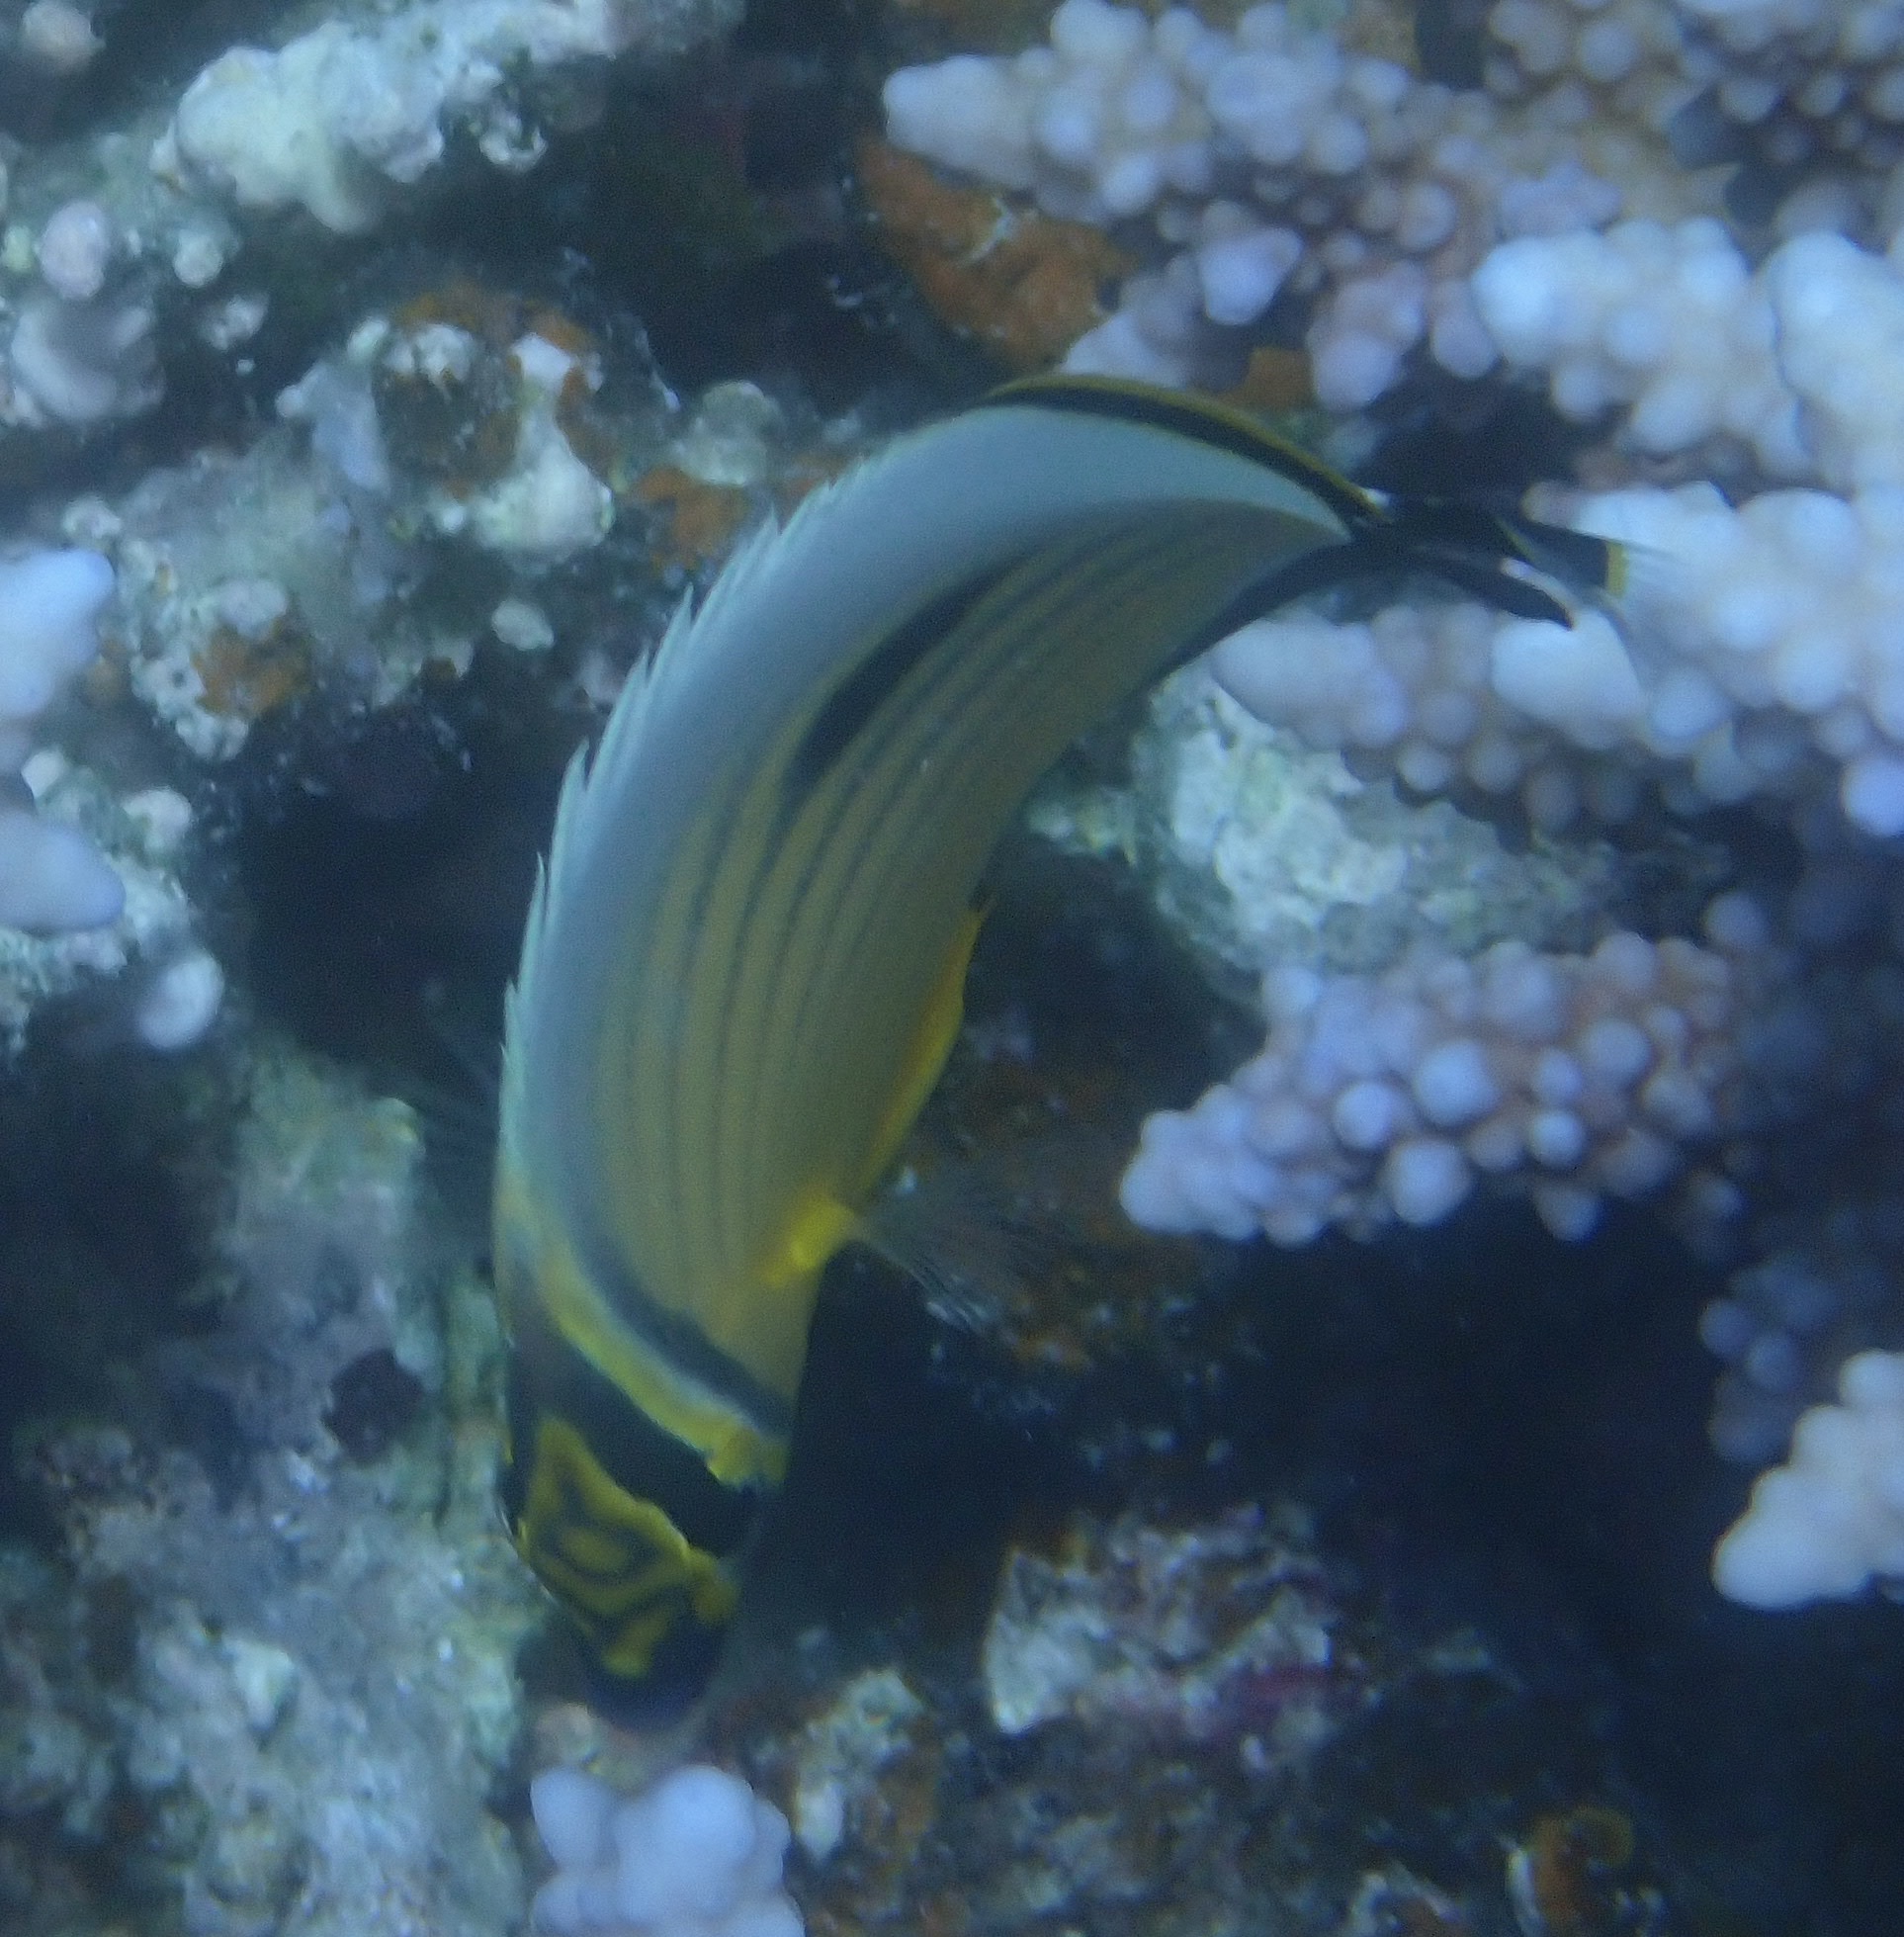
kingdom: Animalia
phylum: Chordata
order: Perciformes
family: Chaetodontidae
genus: Chaetodon
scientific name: Chaetodon austriacus
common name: Exquisite butterflyfish
